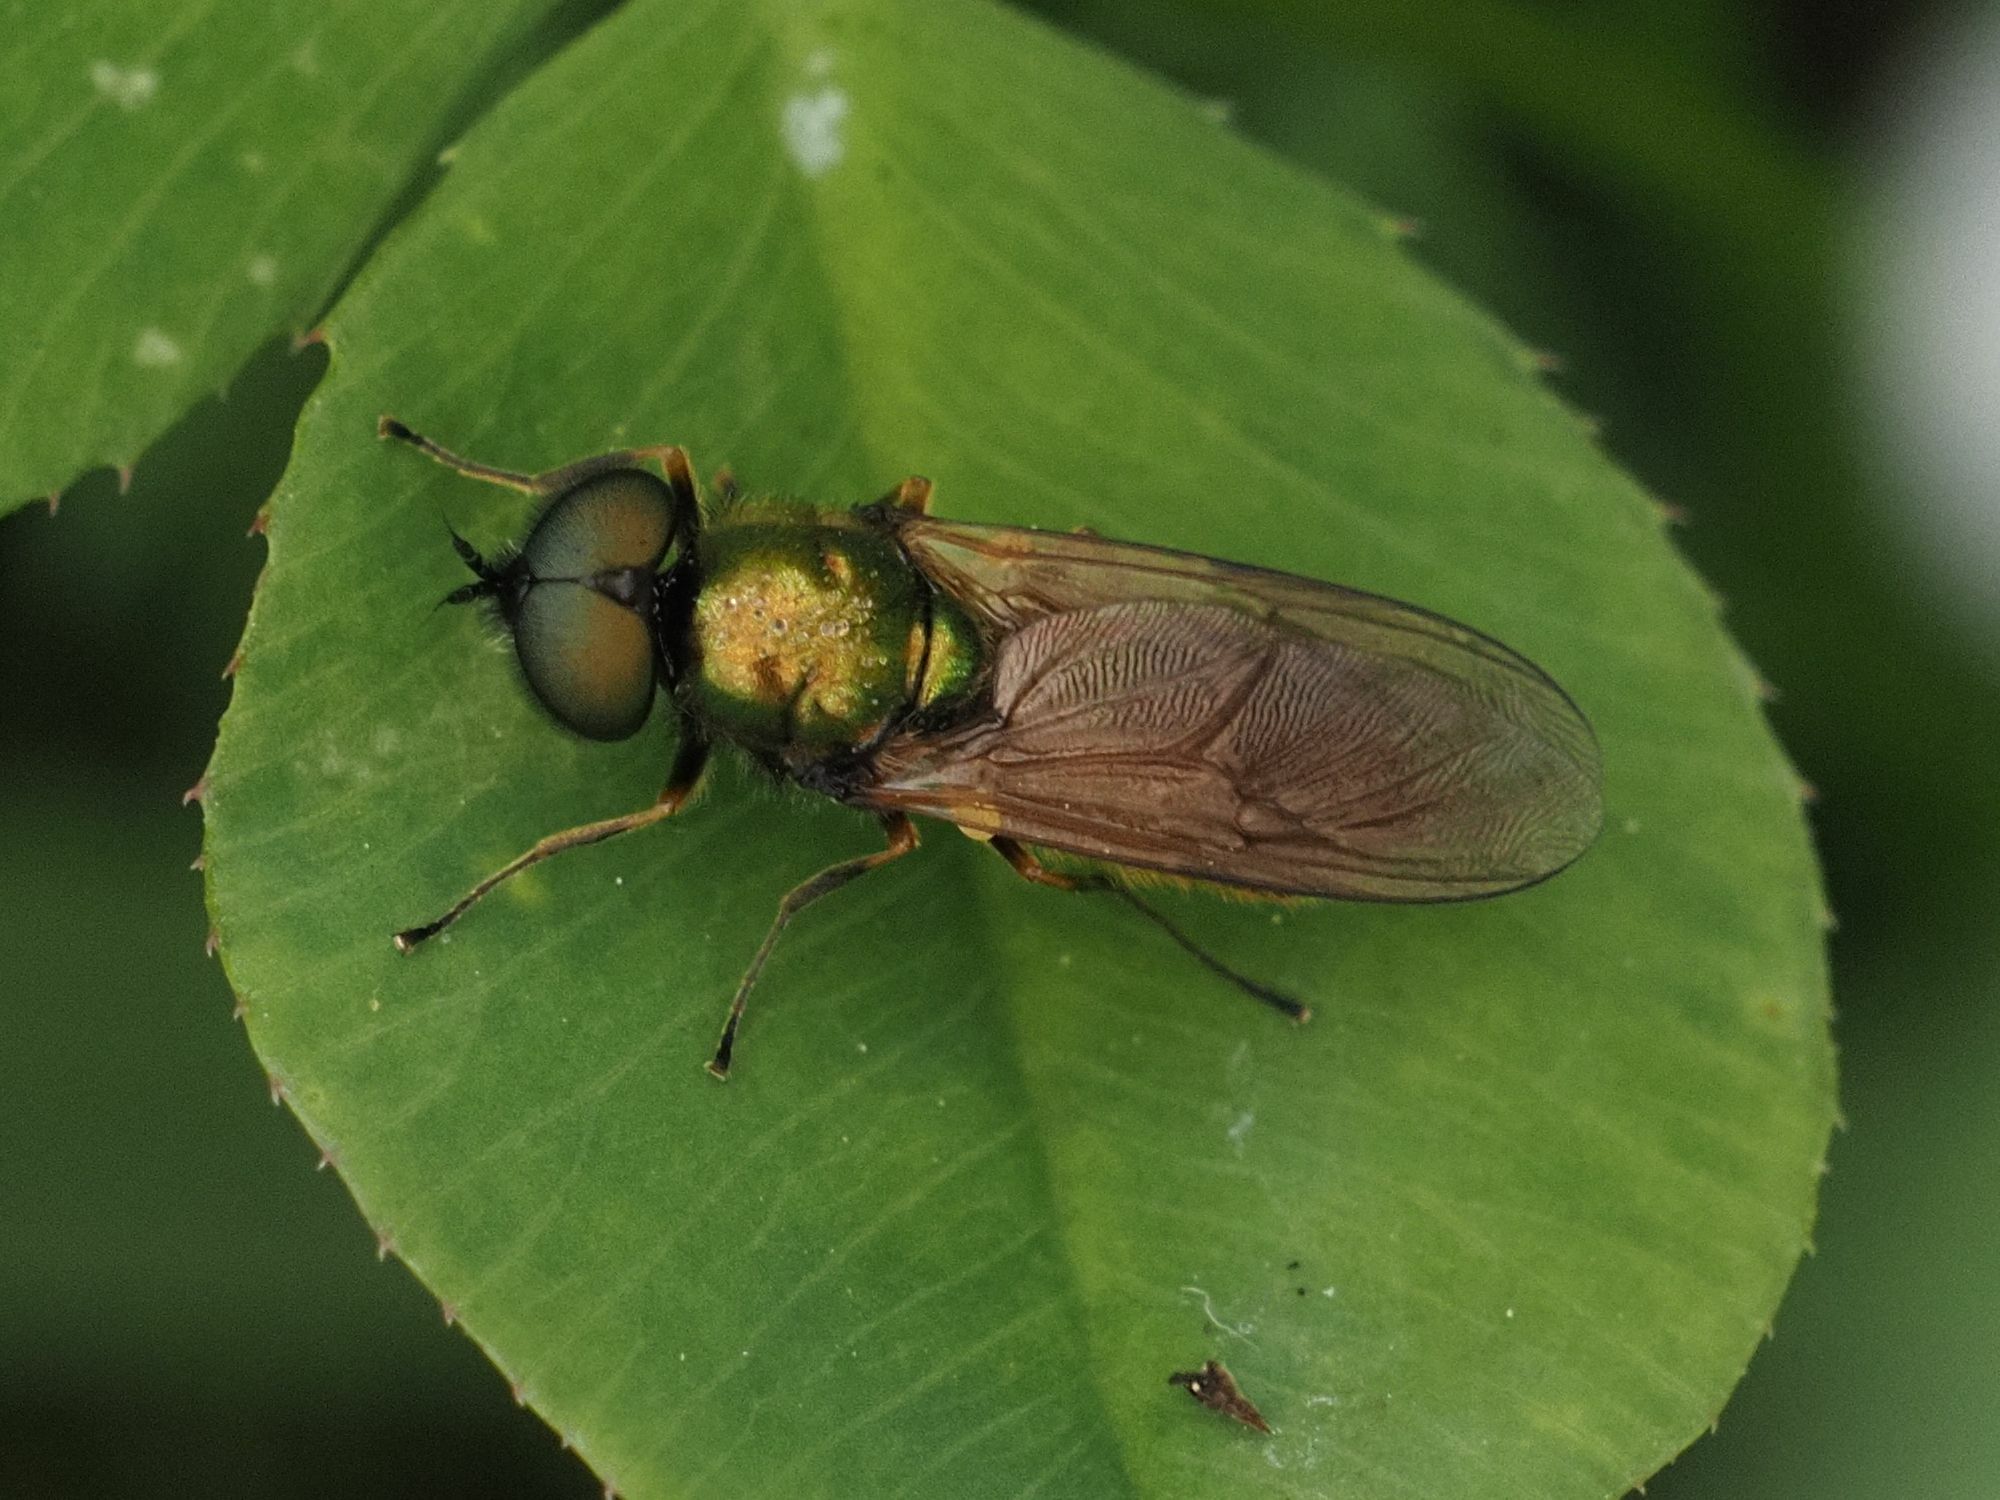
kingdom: Animalia
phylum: Arthropoda
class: Insecta
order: Diptera
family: Stratiomyidae
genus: Chloromyia
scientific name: Chloromyia formosa
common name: Soldier fly
